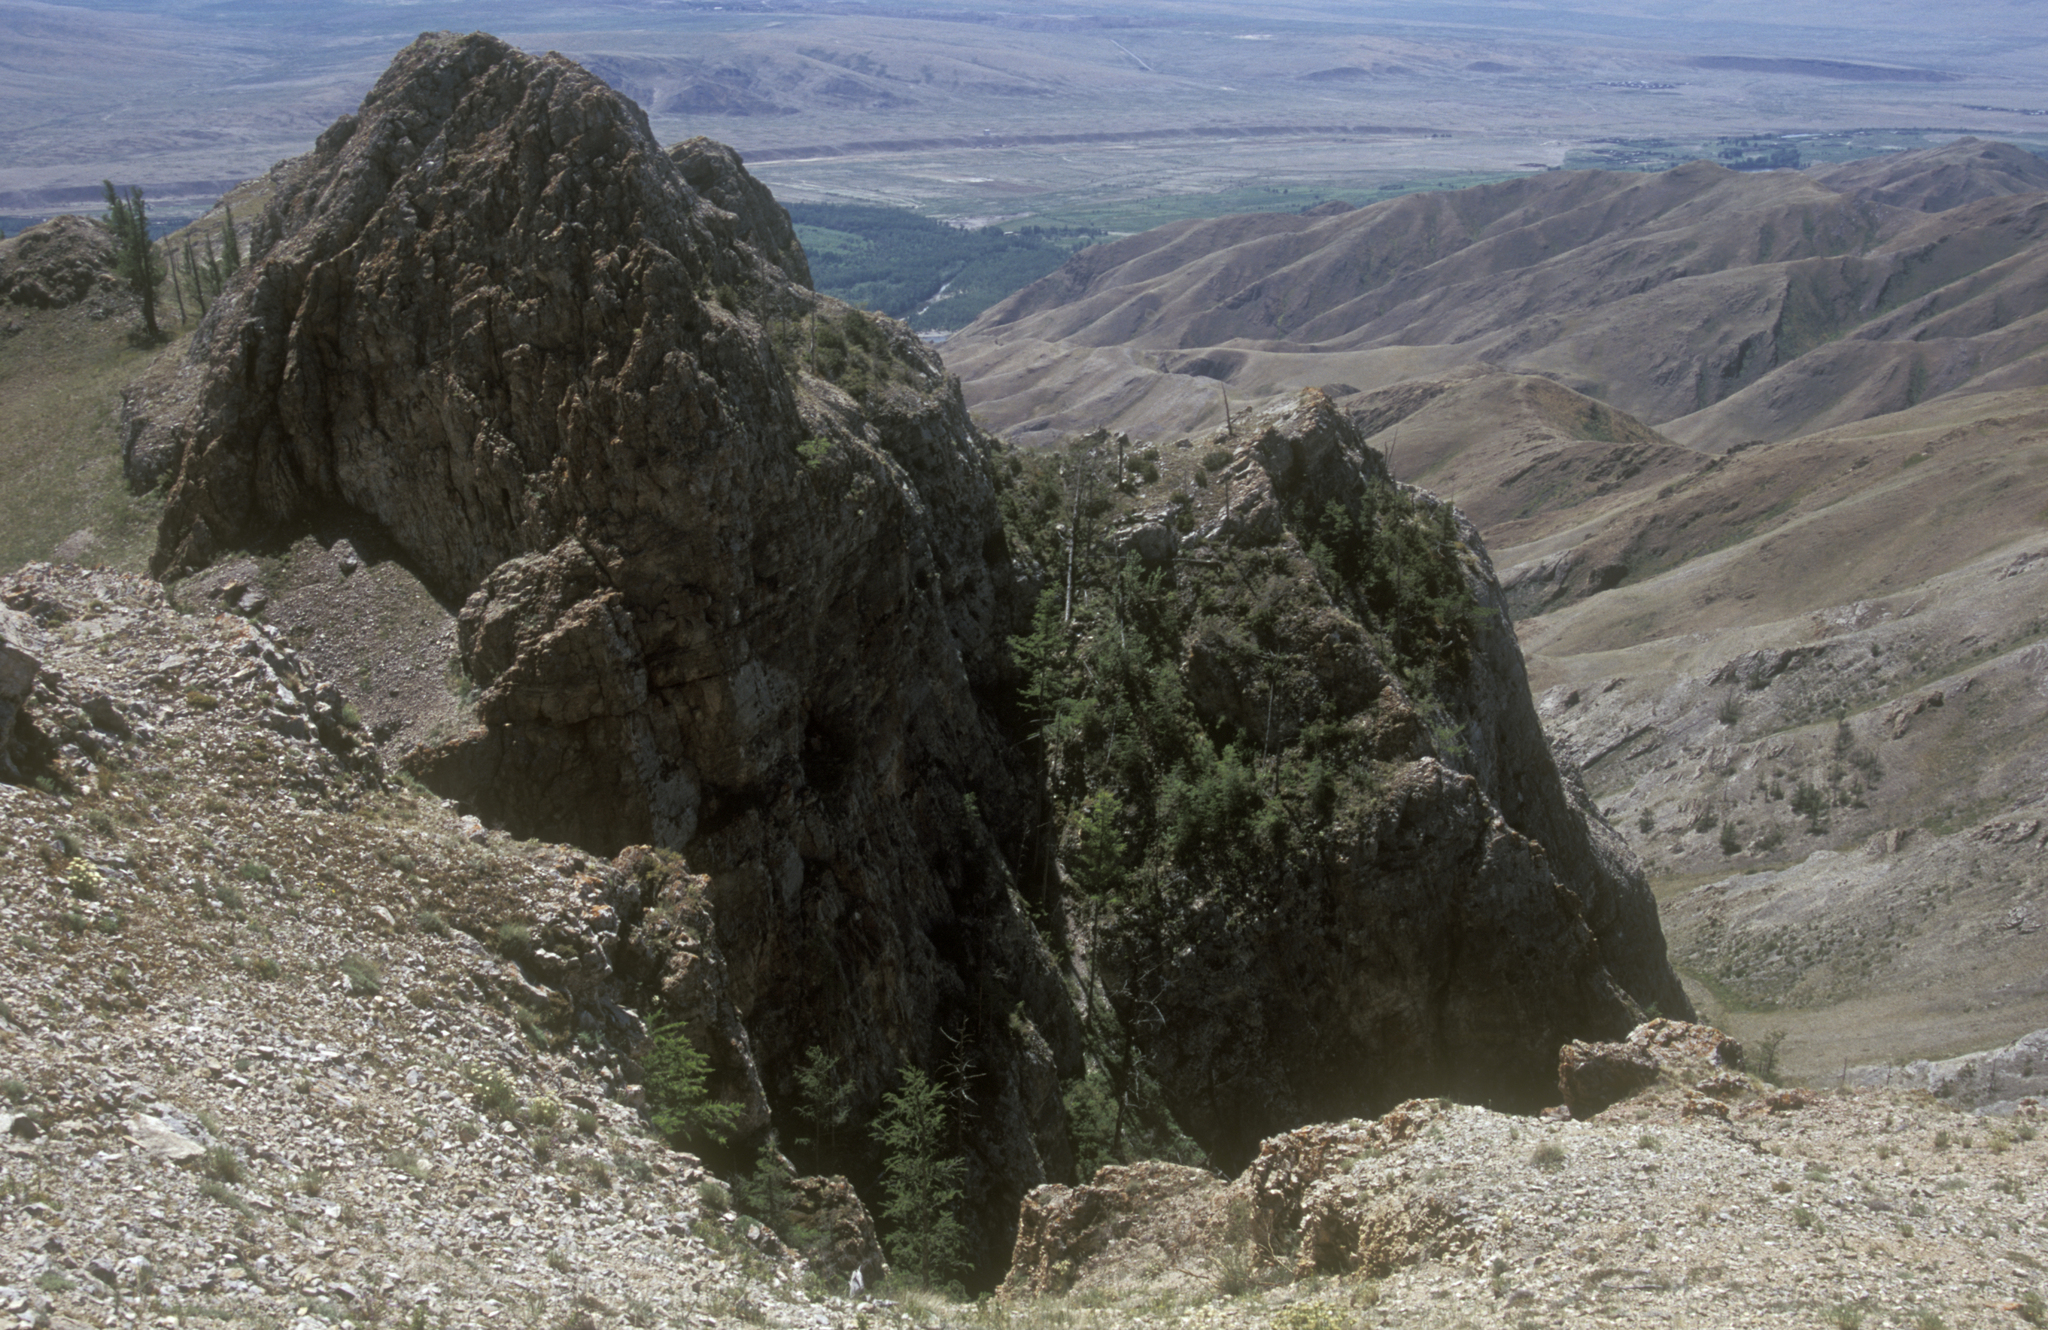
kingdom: Plantae
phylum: Tracheophyta
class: Pinopsida
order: Pinales
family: Pinaceae
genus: Larix
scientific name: Larix sibirica
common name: Siberian larch
